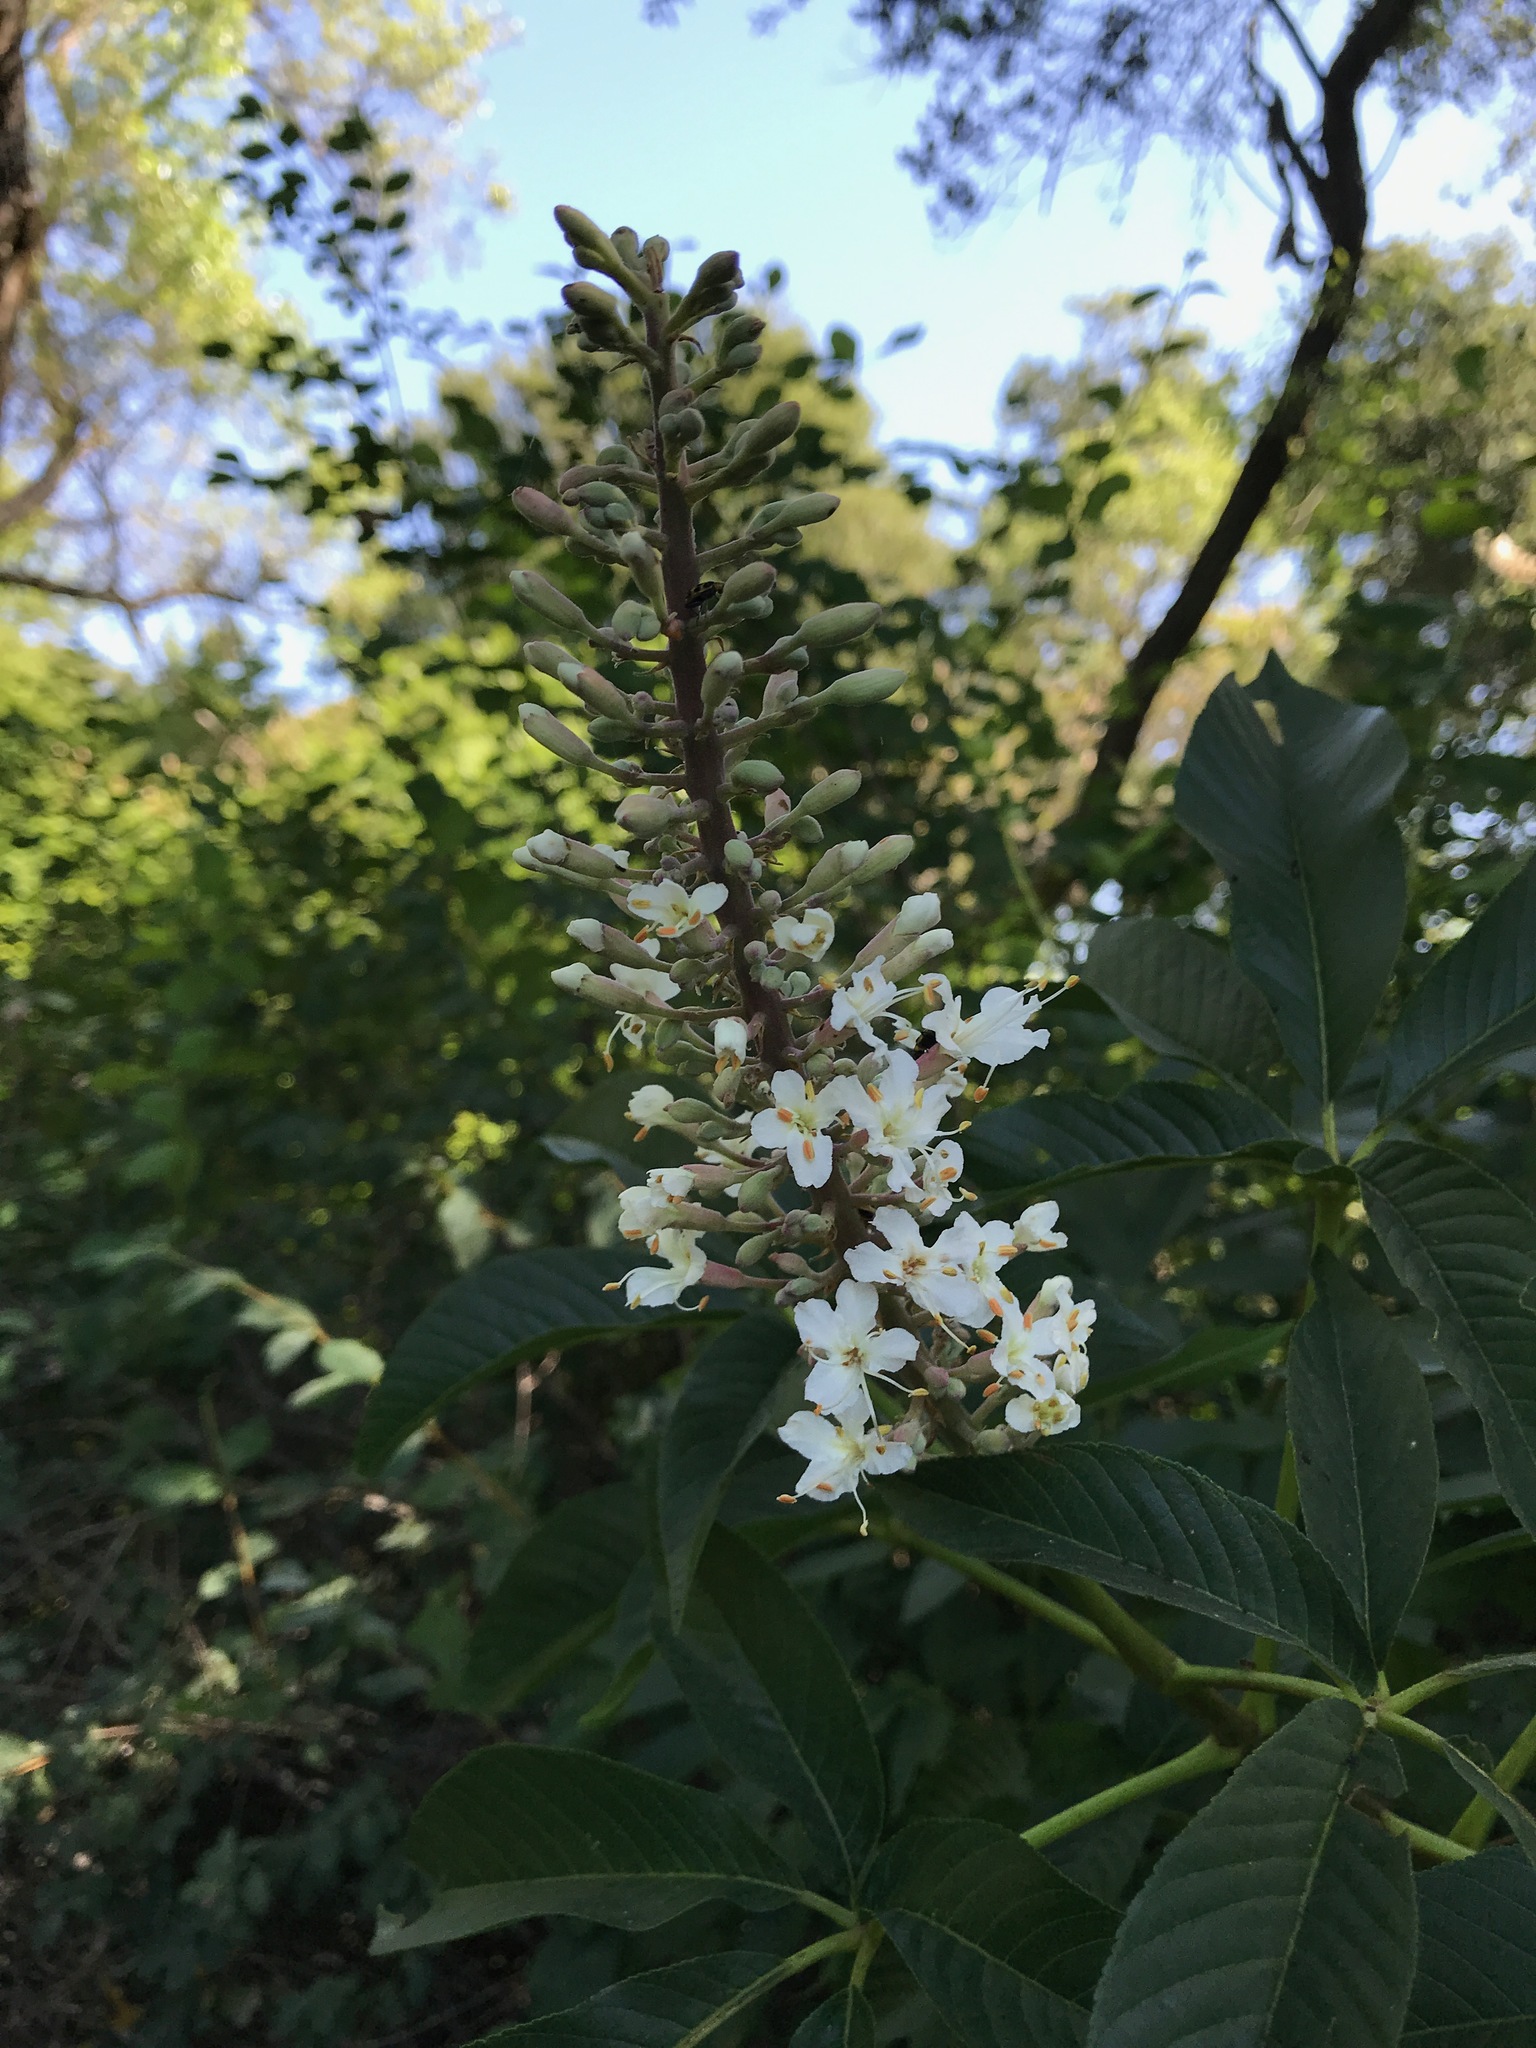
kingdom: Plantae
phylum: Tracheophyta
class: Magnoliopsida
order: Sapindales
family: Sapindaceae
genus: Aesculus
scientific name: Aesculus californica
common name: California buckeye
